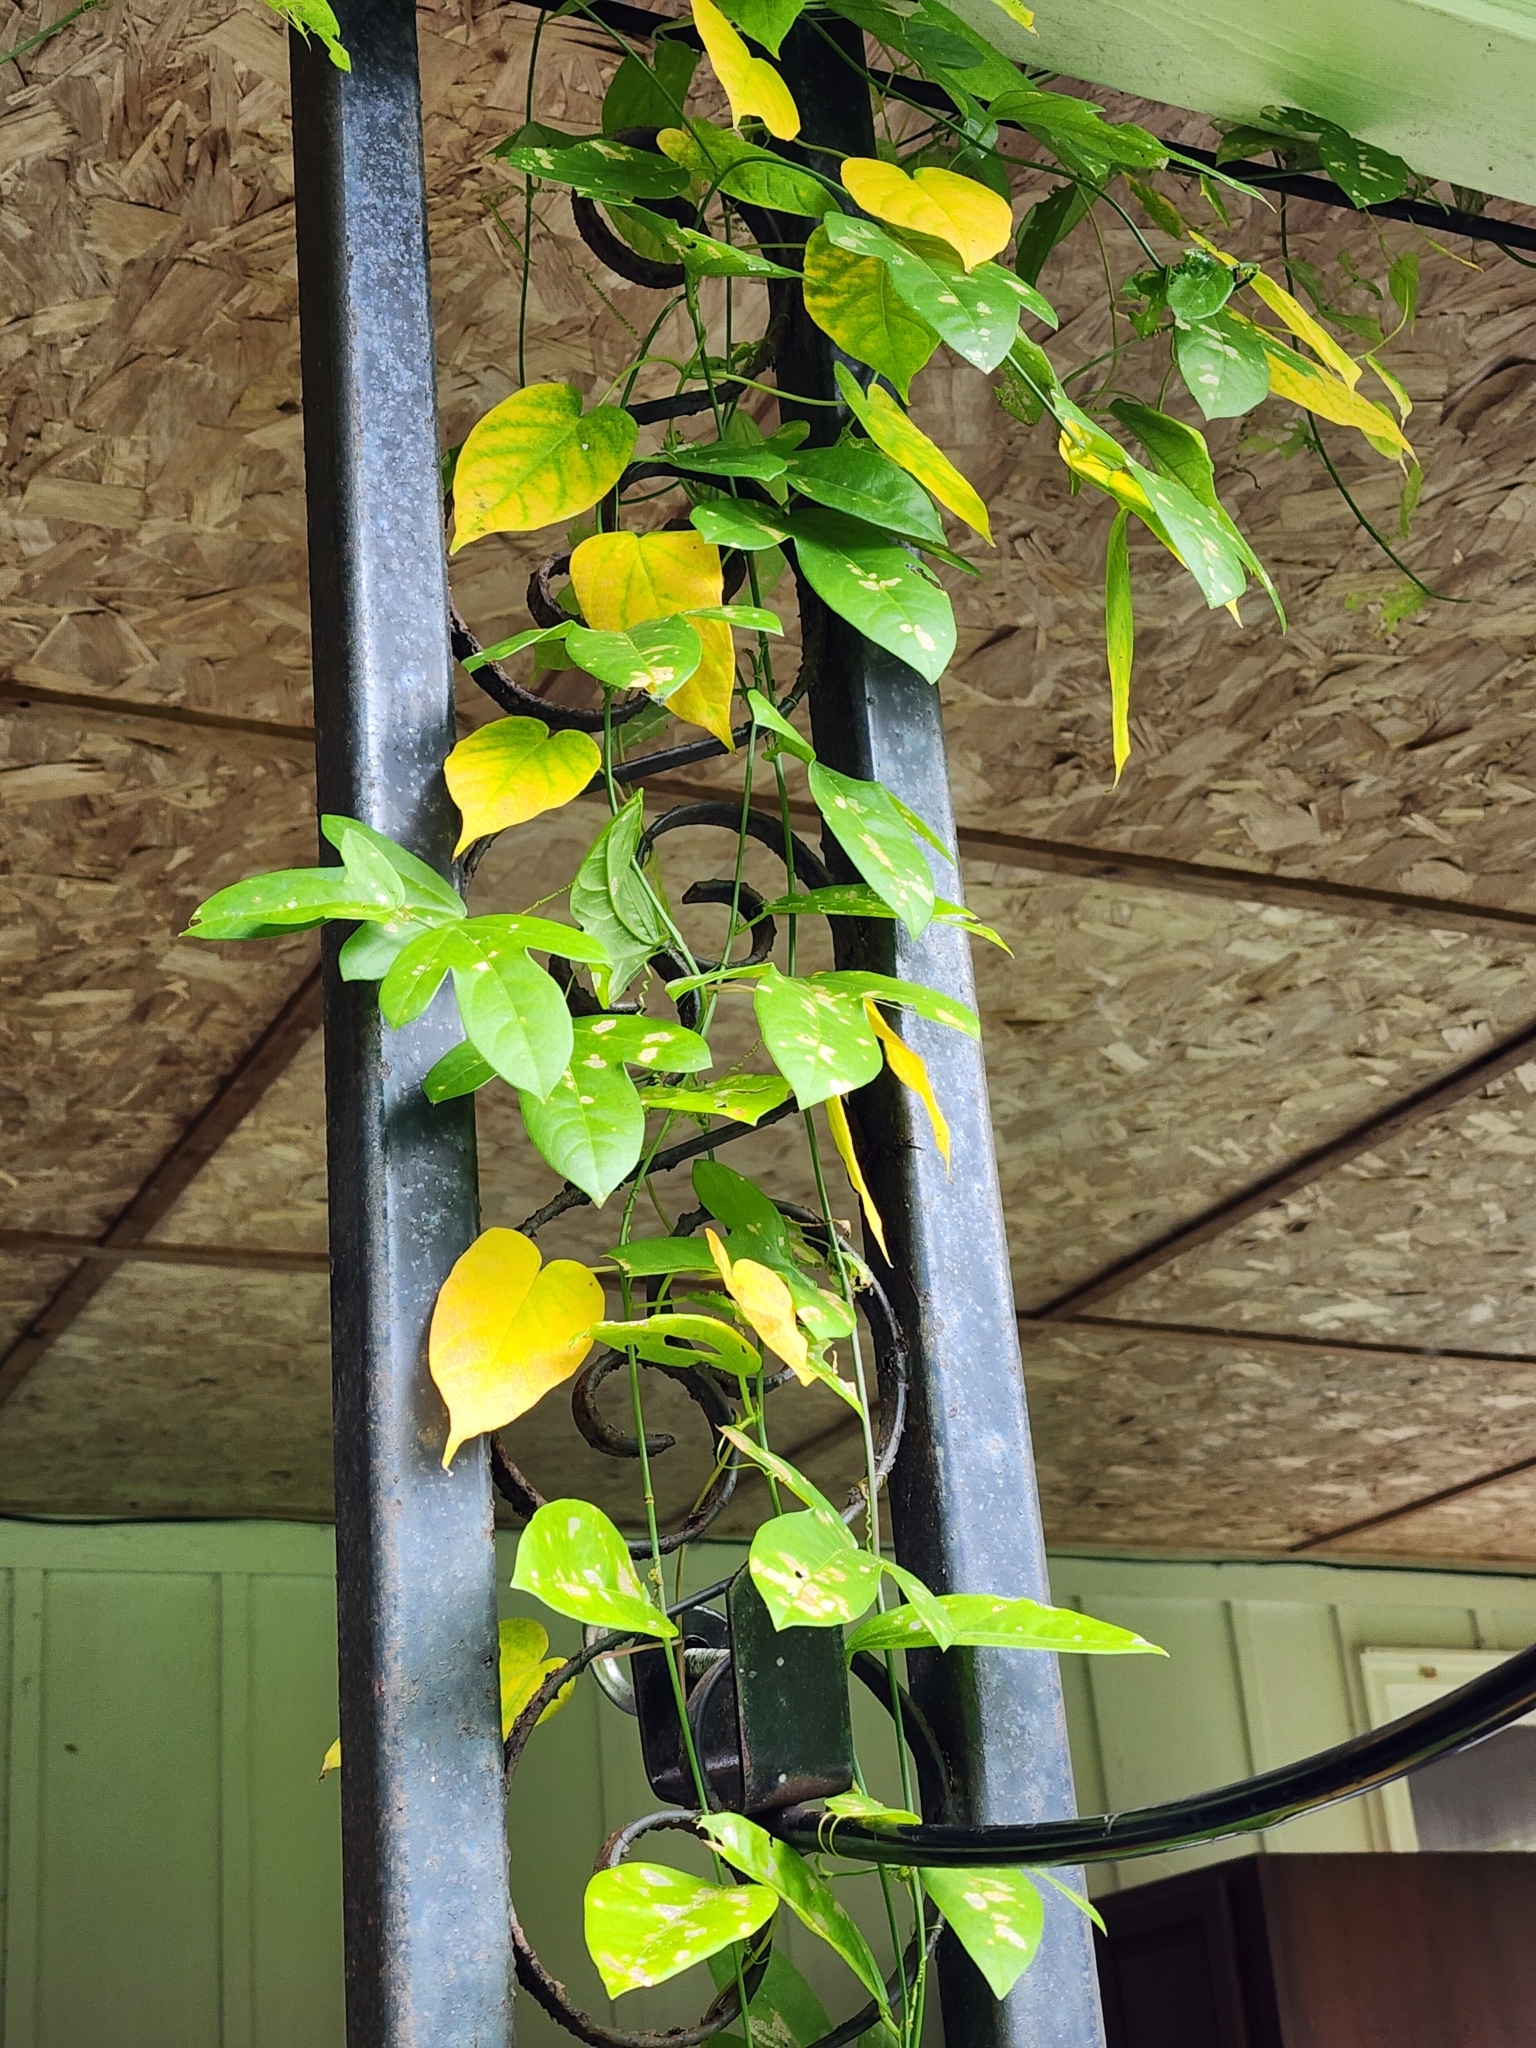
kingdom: Animalia
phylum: Arthropoda
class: Insecta
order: Lepidoptera
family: Nymphalidae
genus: Heliconius
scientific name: Heliconius charithonia
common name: Zebra long wing
